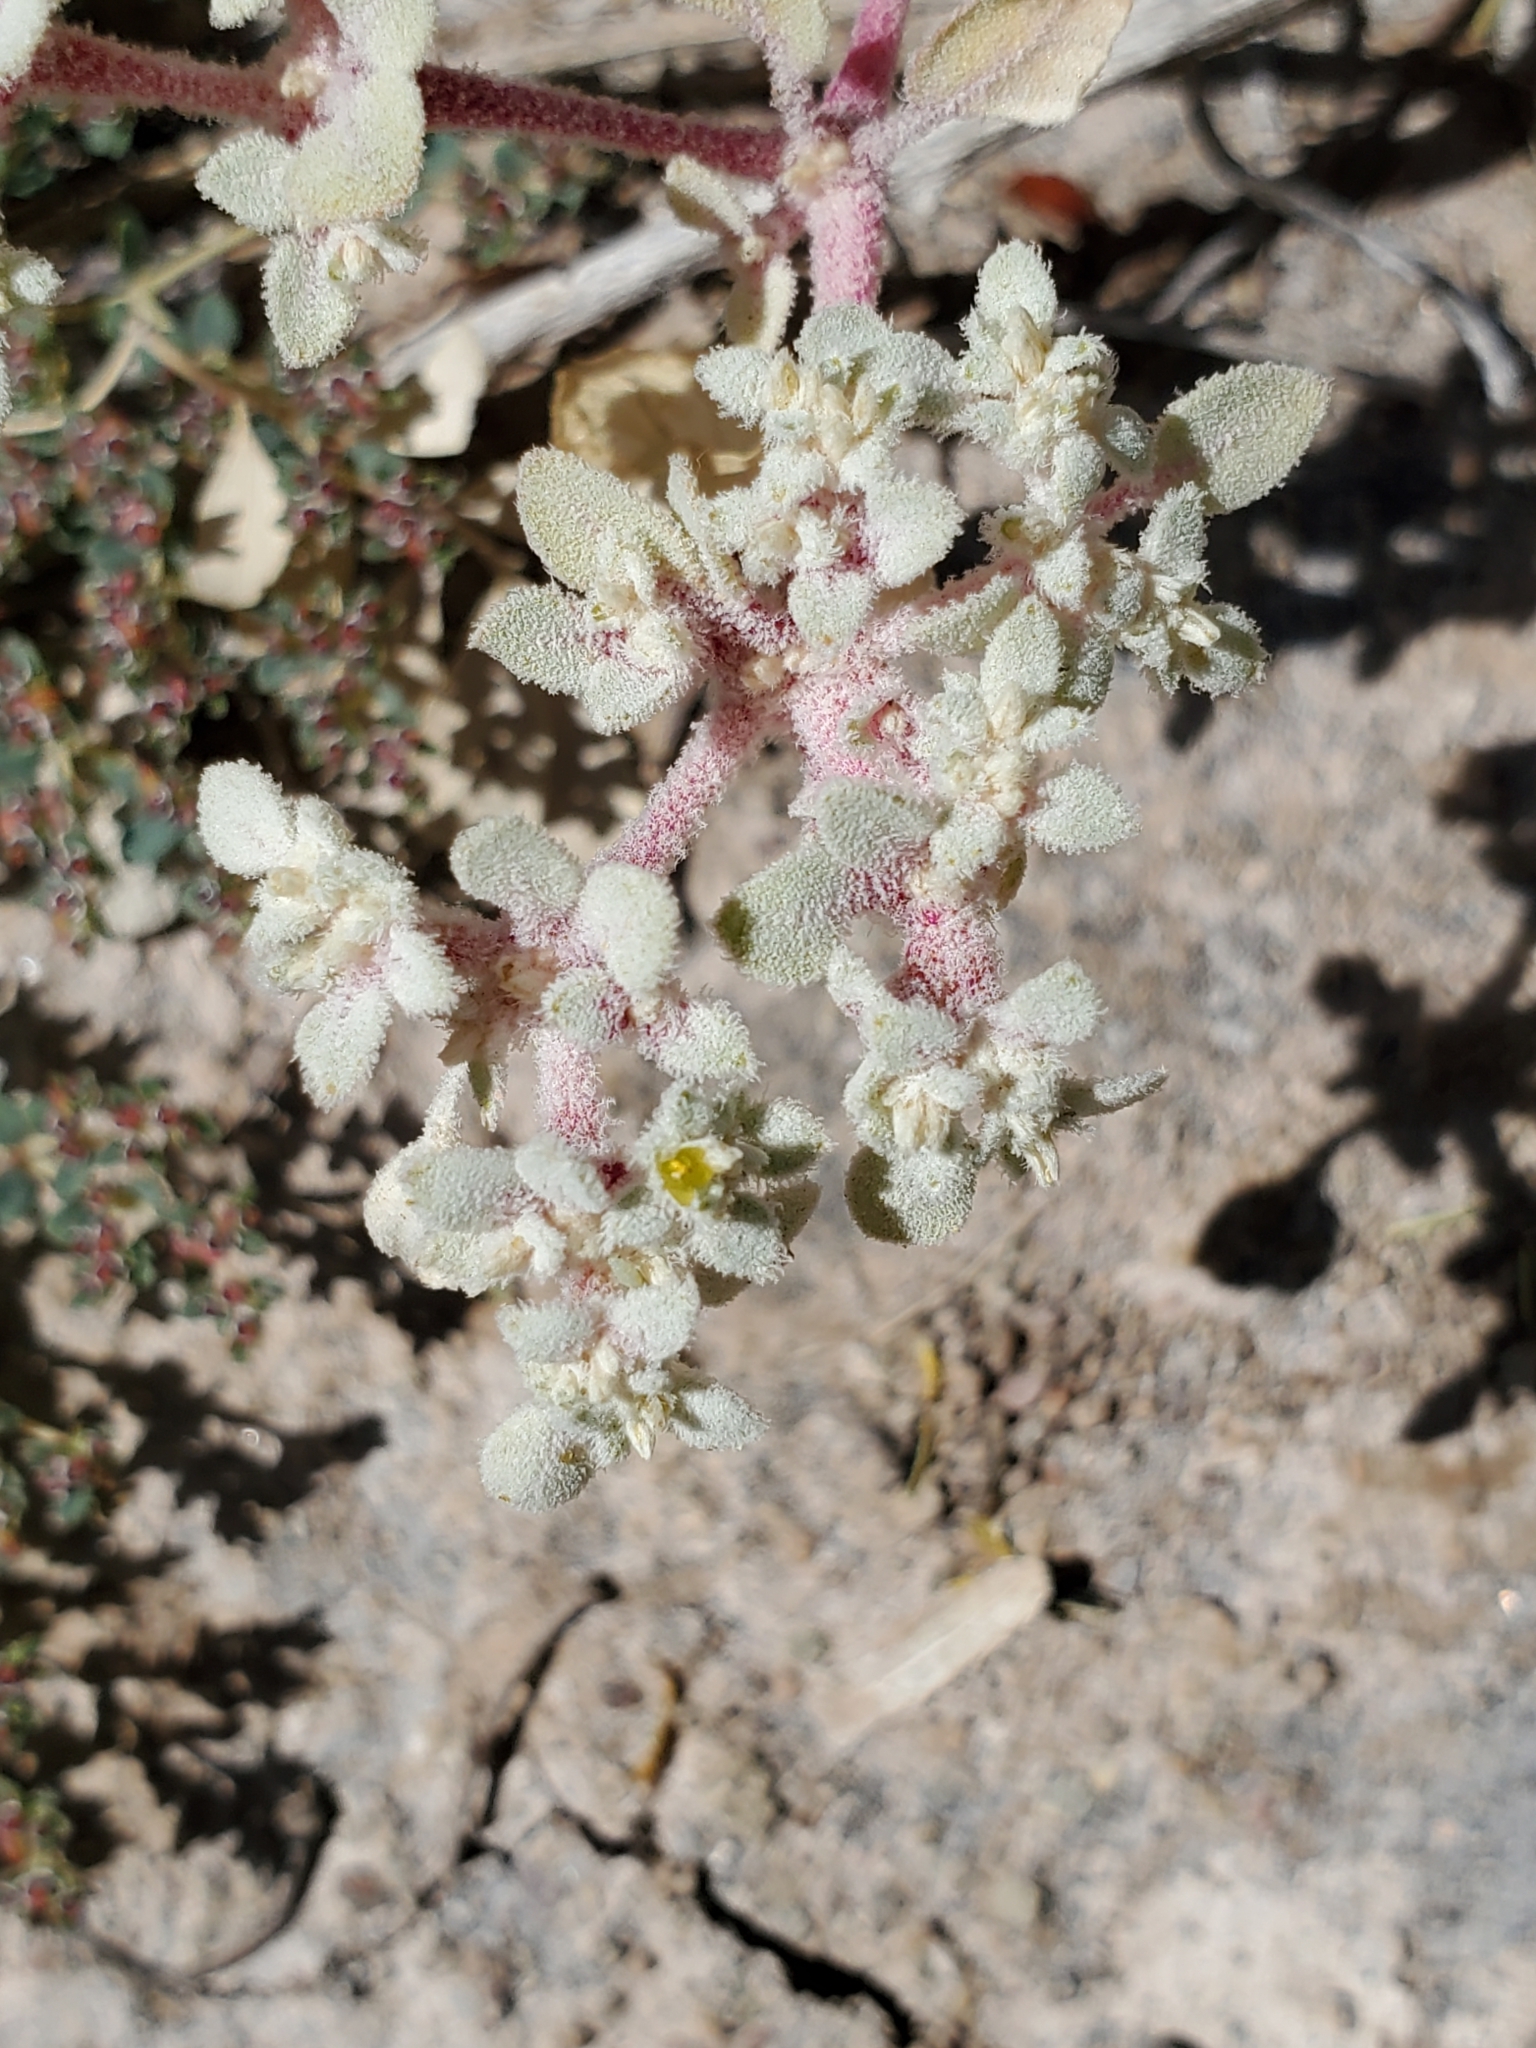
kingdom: Plantae
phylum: Tracheophyta
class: Magnoliopsida
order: Caryophyllales
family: Amaranthaceae
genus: Tidestromia
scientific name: Tidestromia lanuginosa
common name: Woolly tidestromia
